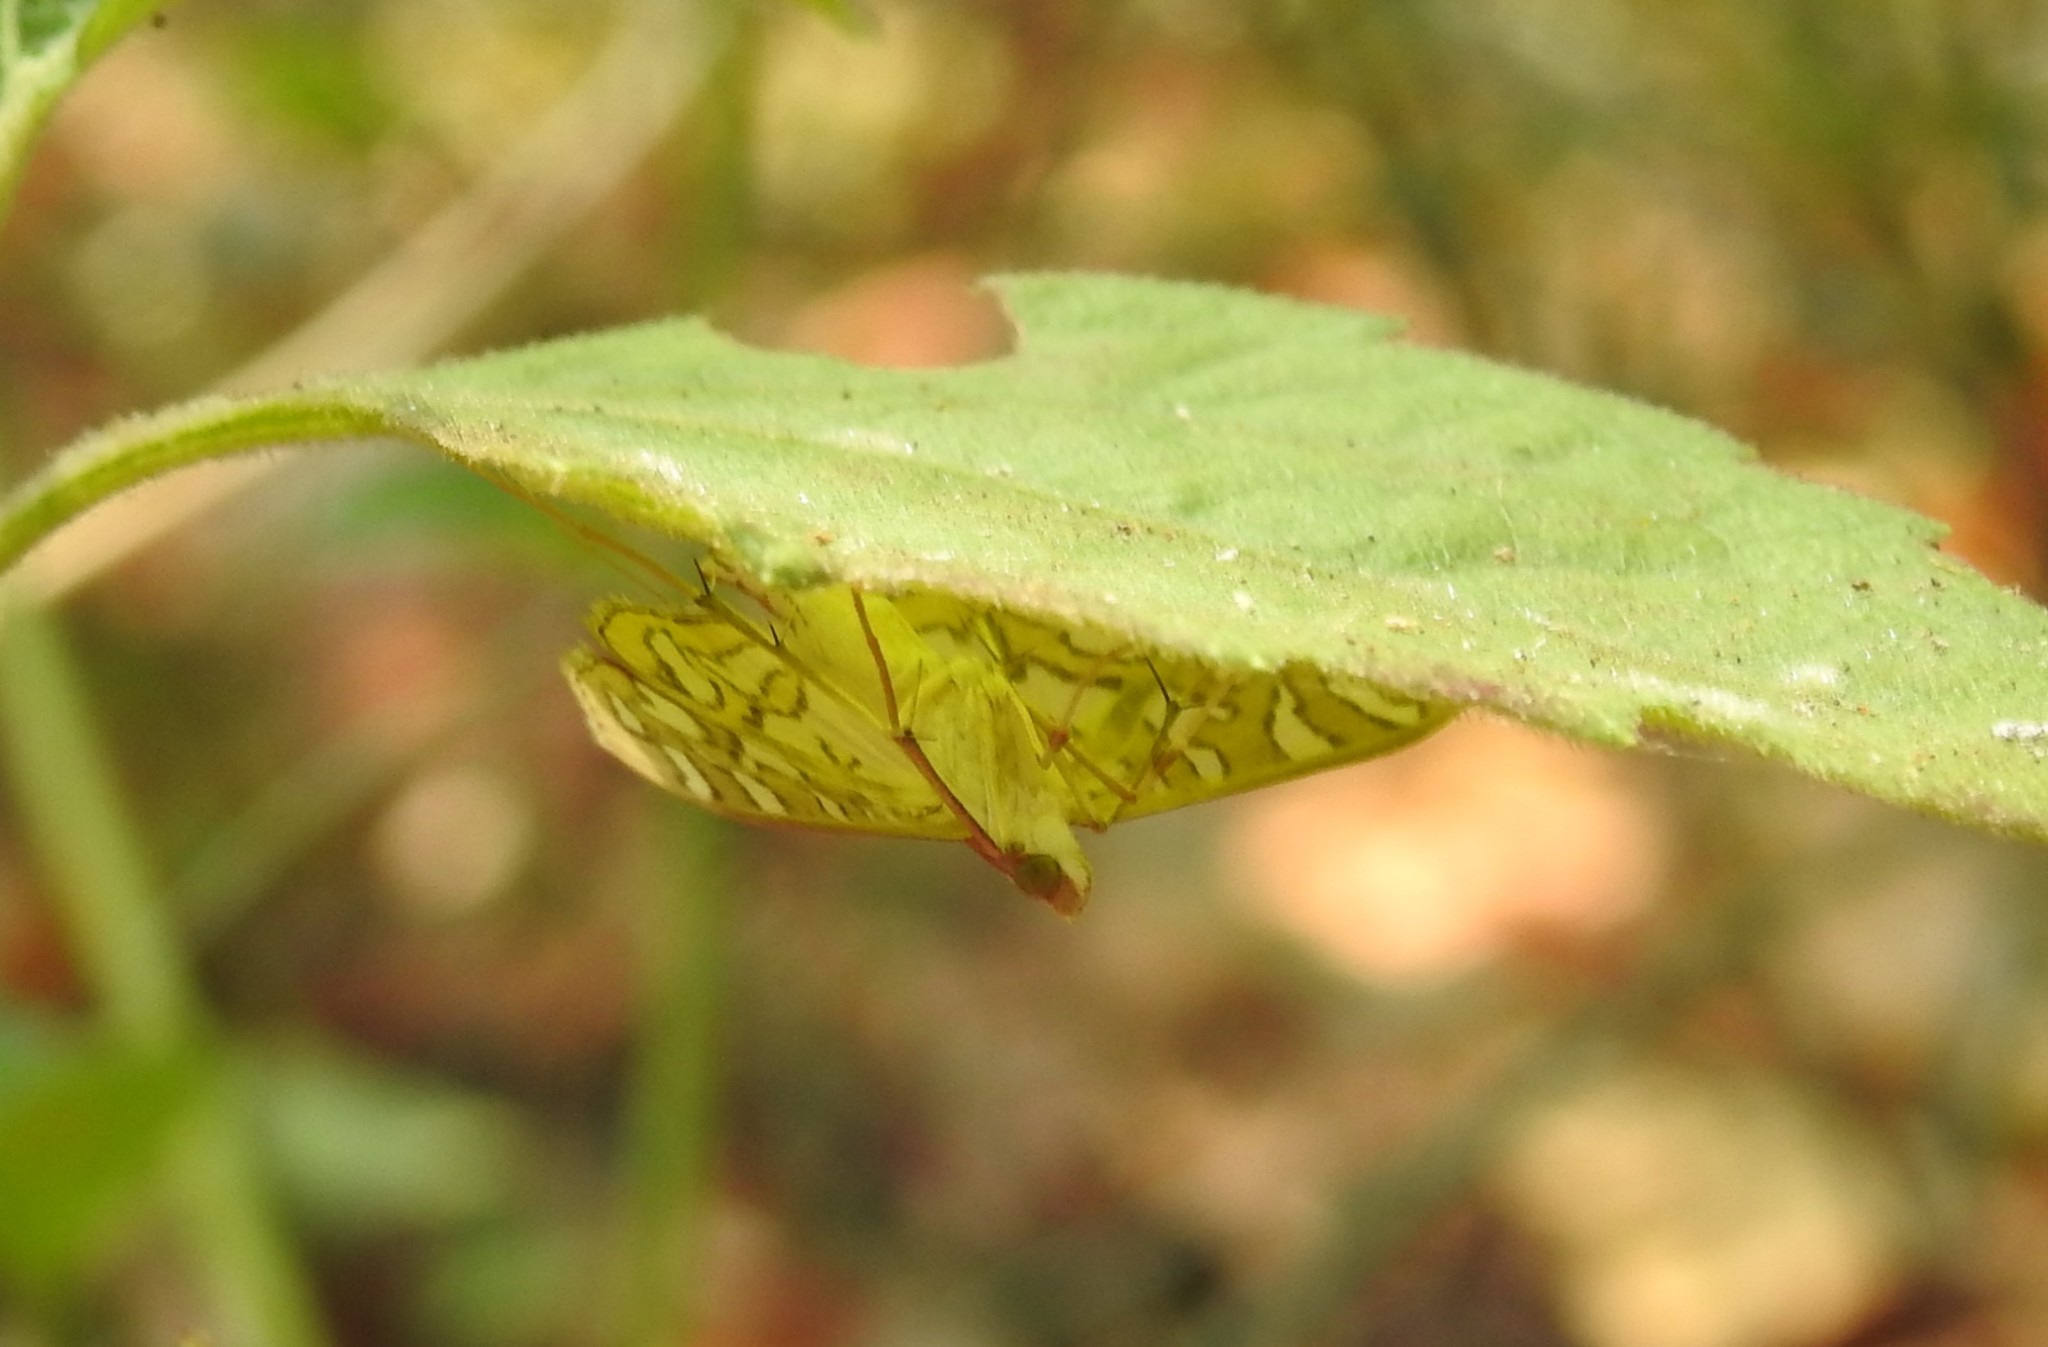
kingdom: Animalia
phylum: Arthropoda
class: Insecta
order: Lepidoptera
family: Crambidae
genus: Nausinoe
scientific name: Nausinoe perspectata
